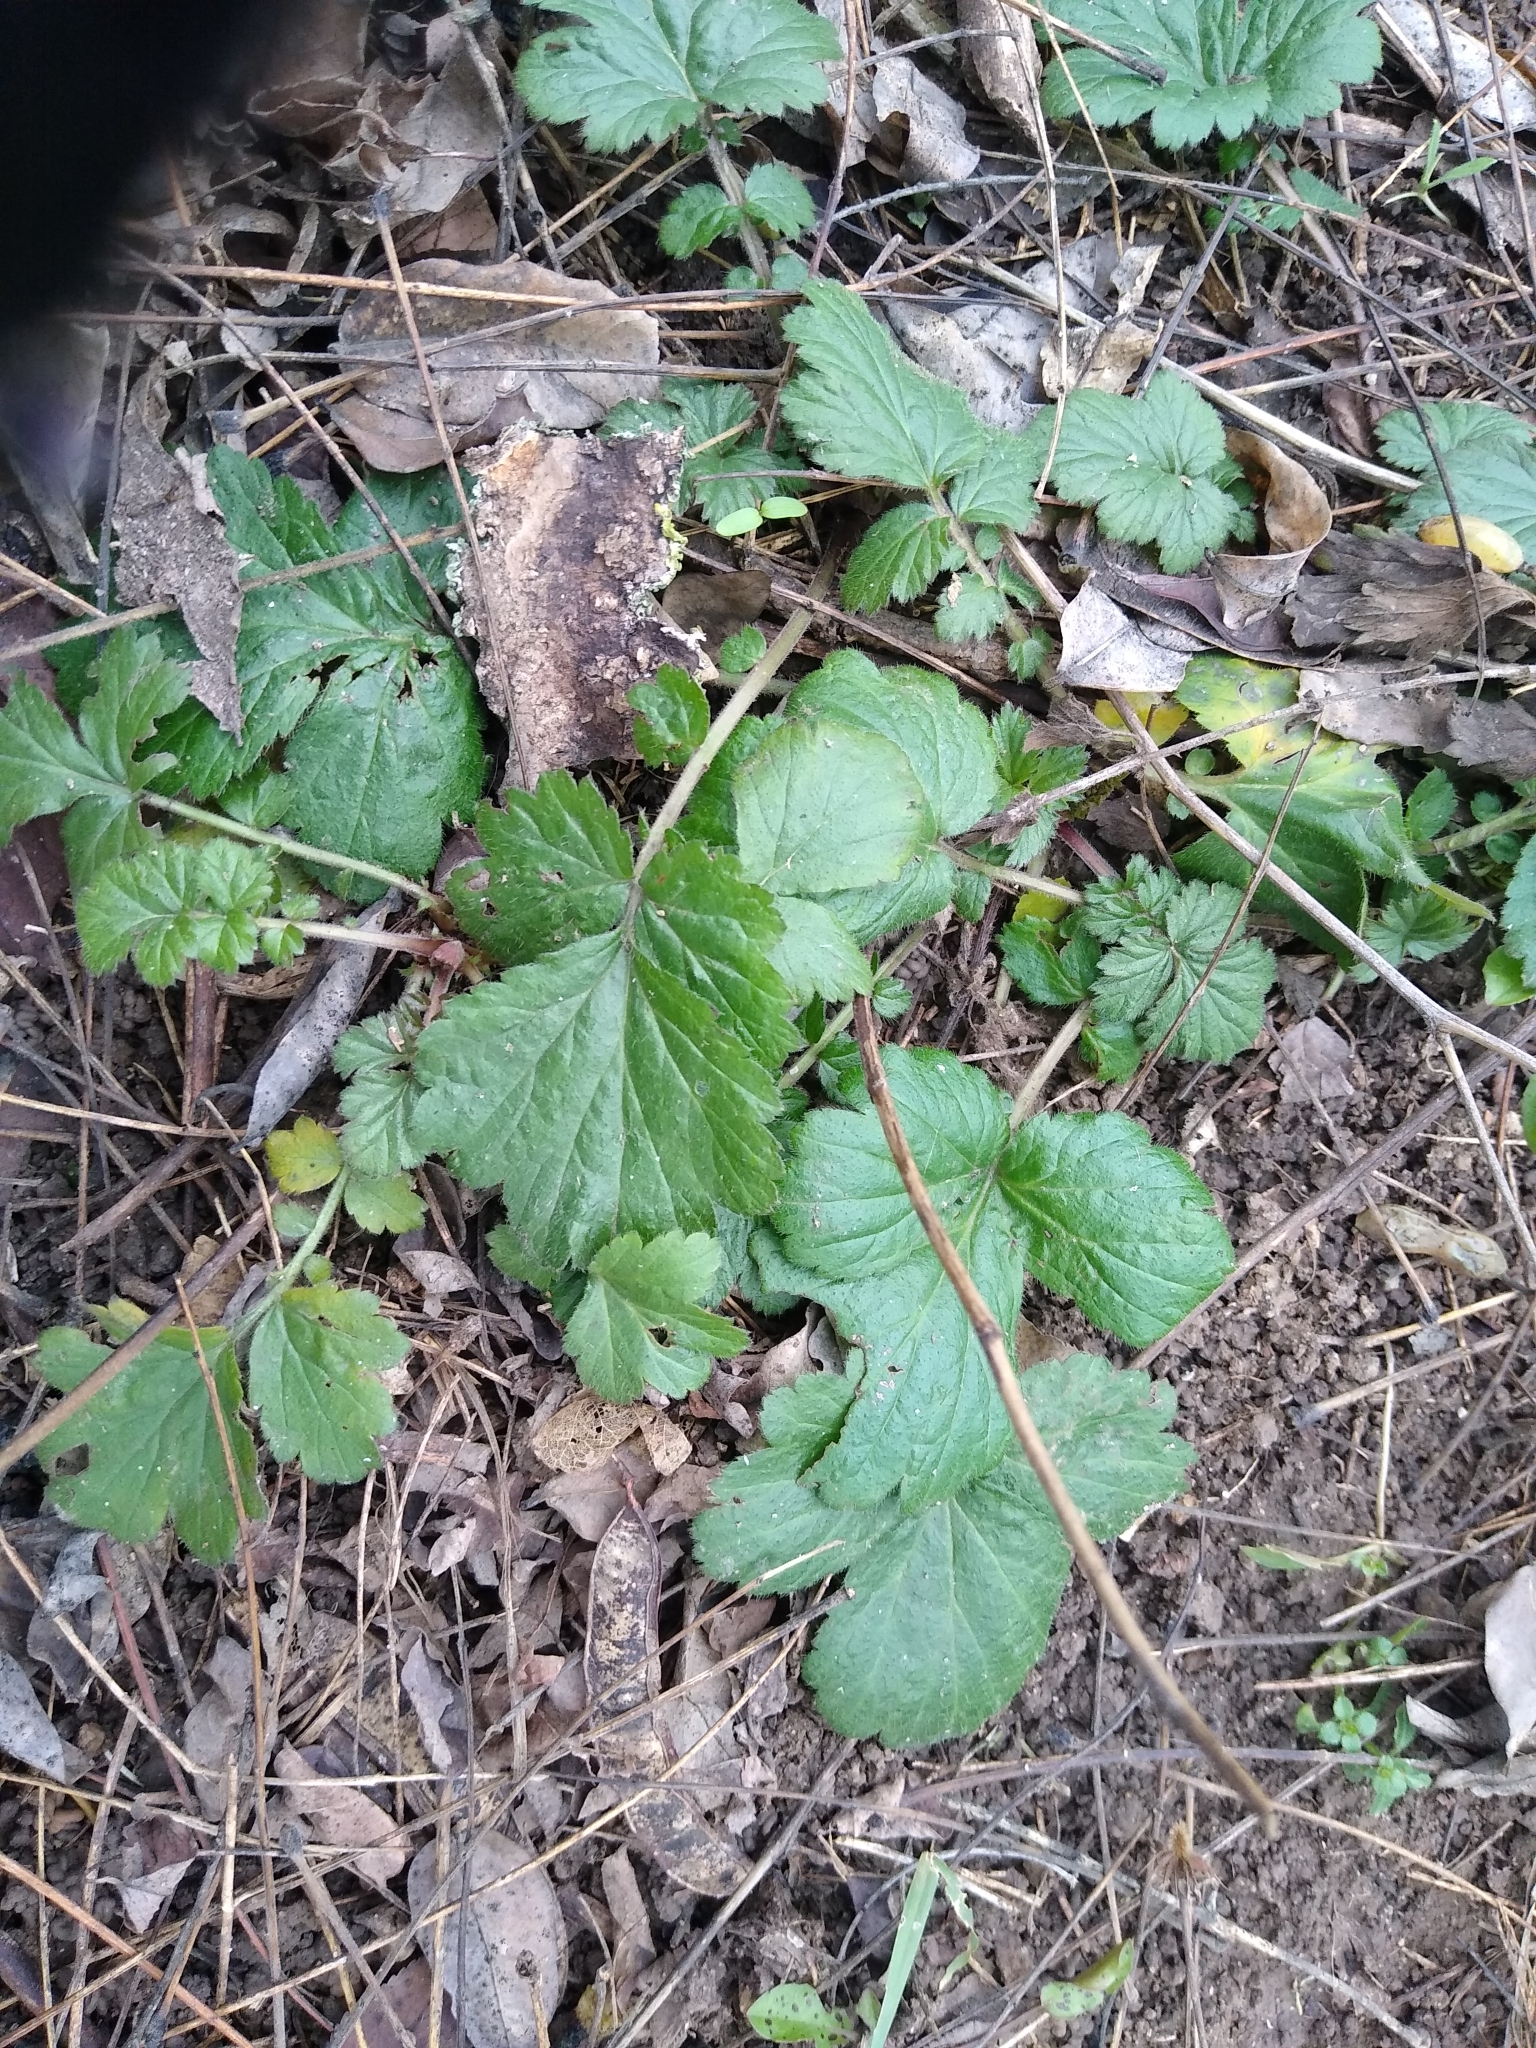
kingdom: Plantae
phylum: Tracheophyta
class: Magnoliopsida
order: Rosales
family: Rosaceae
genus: Geum
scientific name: Geum urbanum
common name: Wood avens
